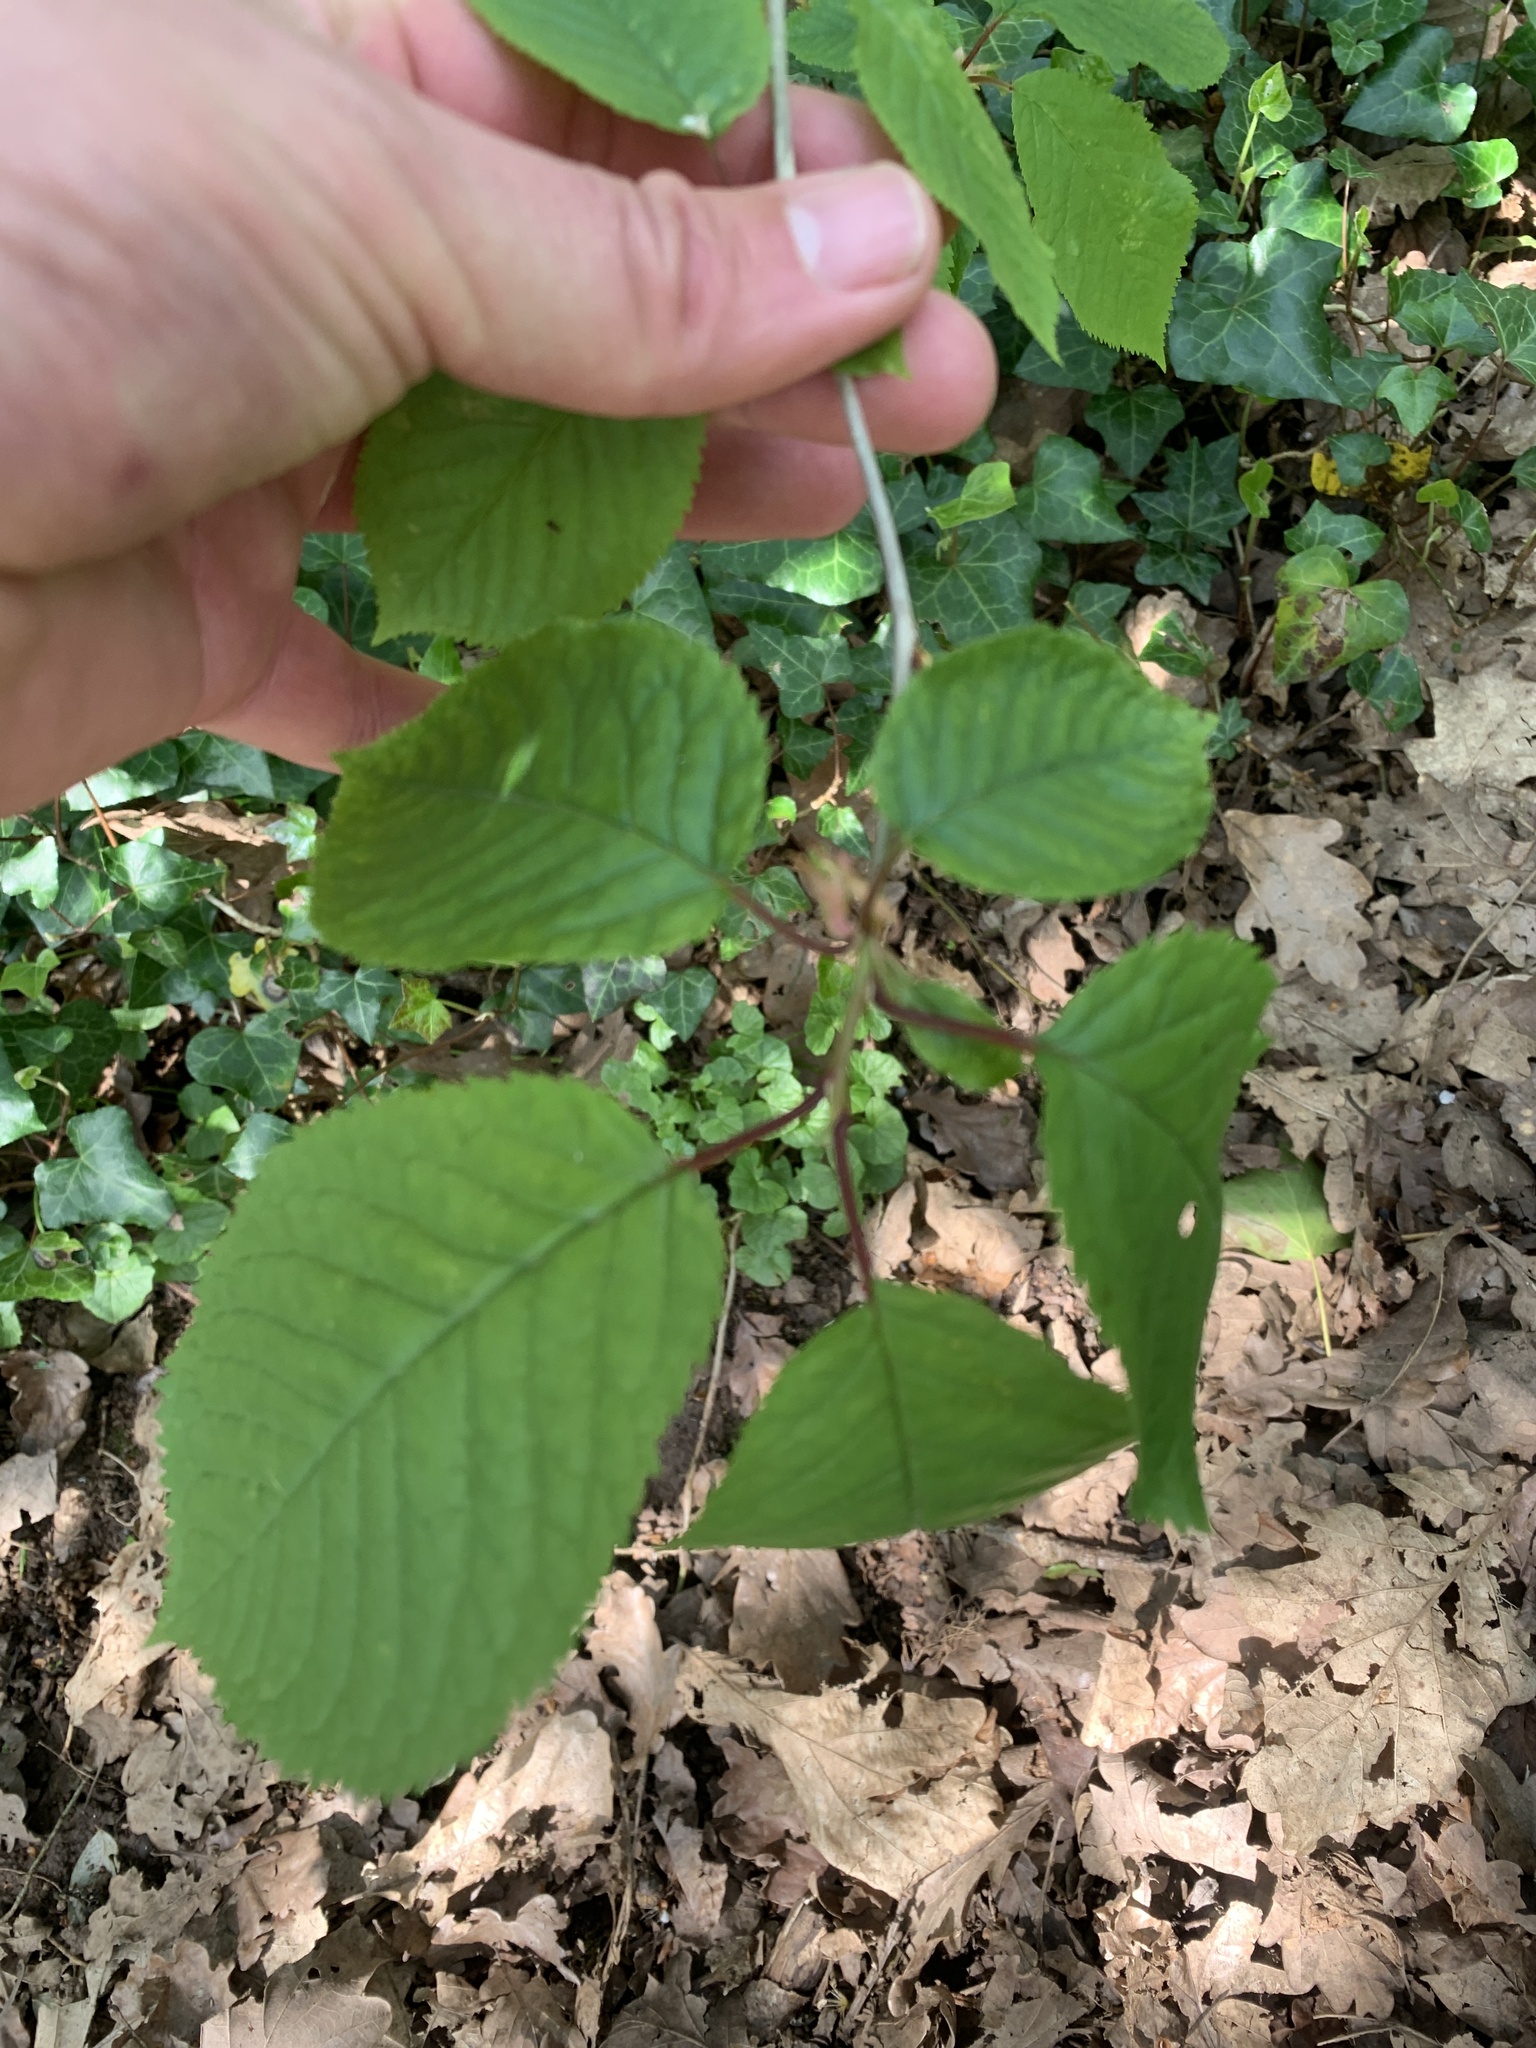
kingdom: Plantae
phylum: Tracheophyta
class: Magnoliopsida
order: Rosales
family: Rosaceae
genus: Prunus
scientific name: Prunus avium
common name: Sweet cherry
